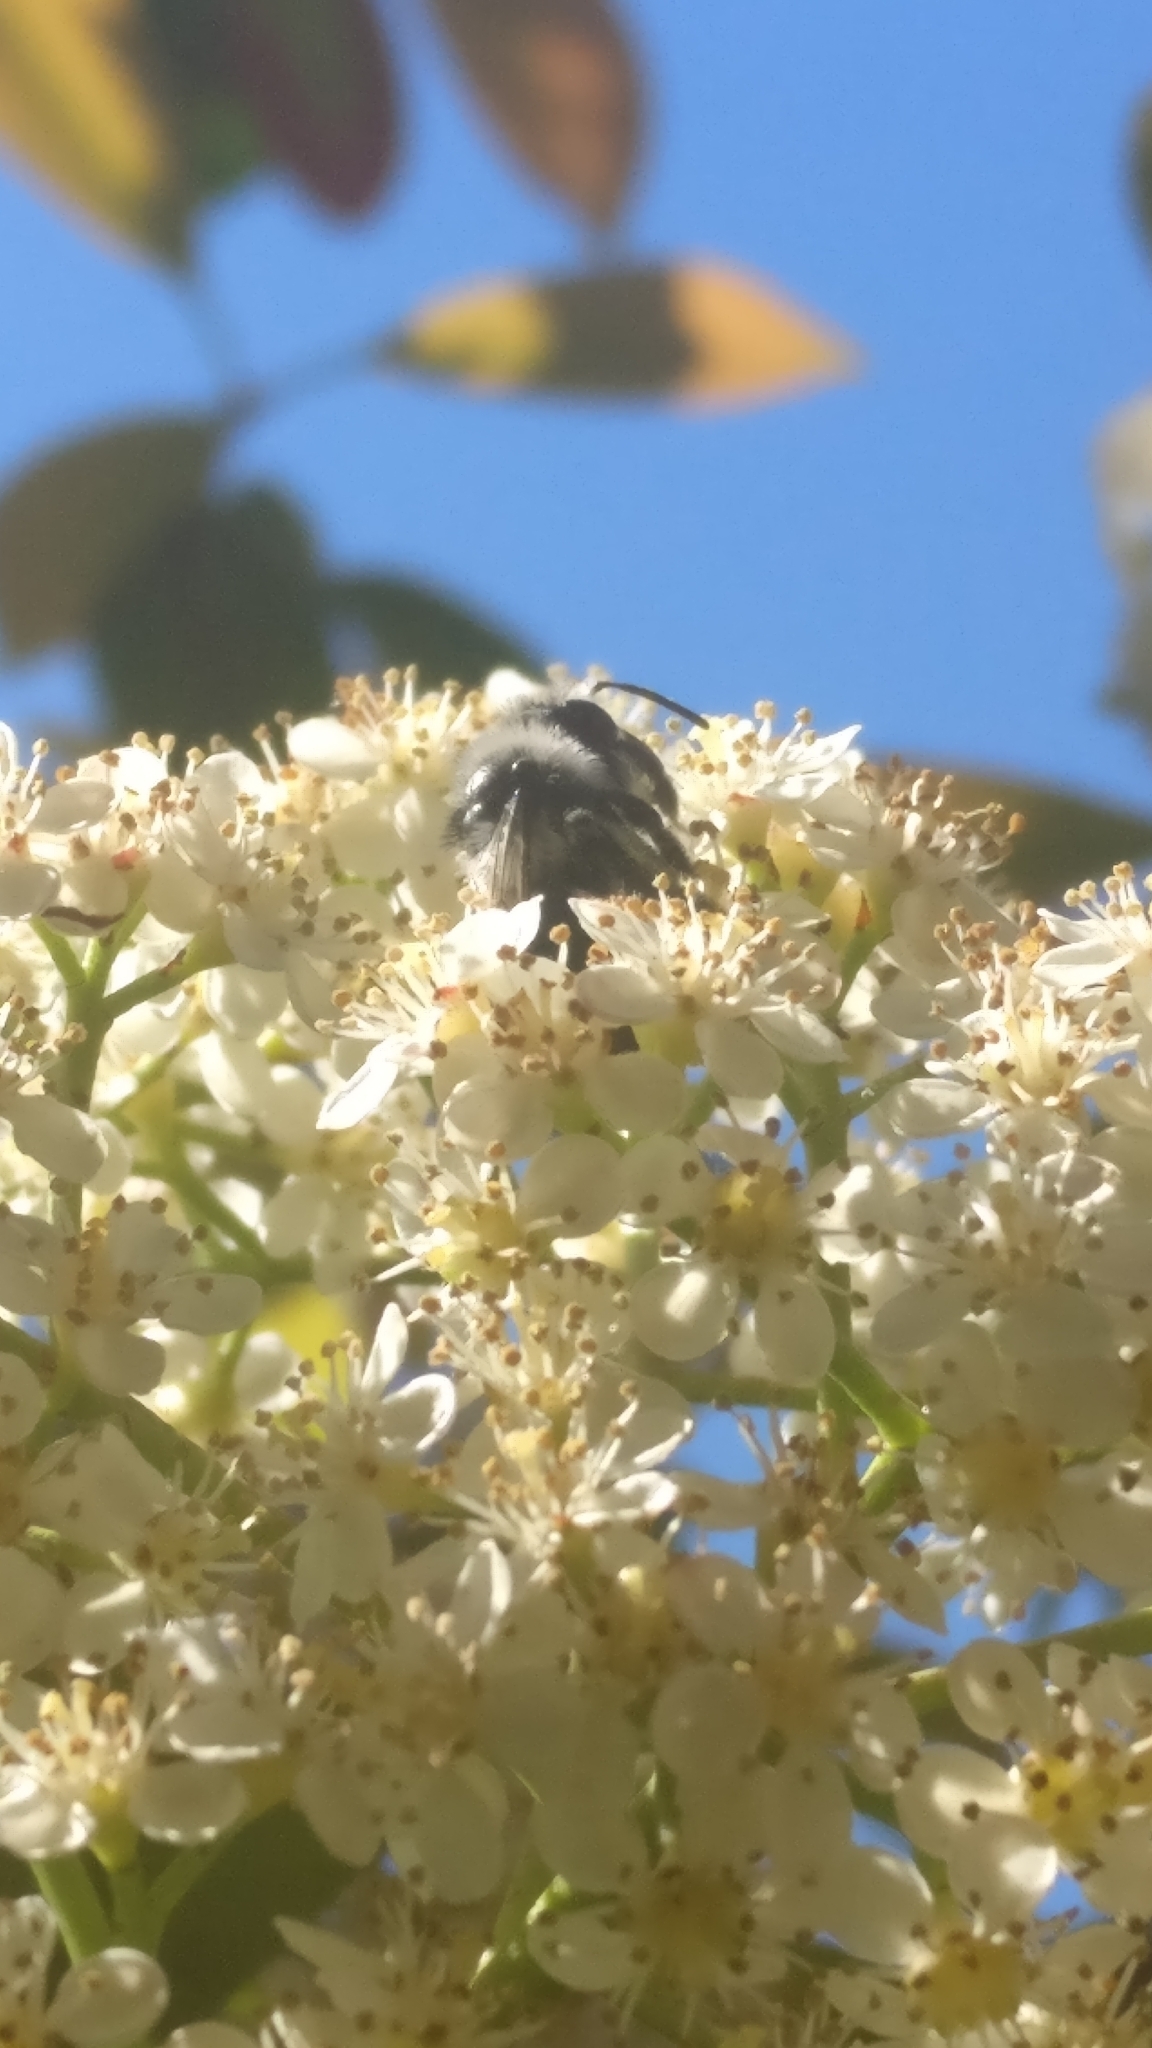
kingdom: Animalia
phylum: Arthropoda
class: Insecta
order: Hymenoptera
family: Andrenidae
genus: Andrena
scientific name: Andrena cineraria
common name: Ashy mining bee
